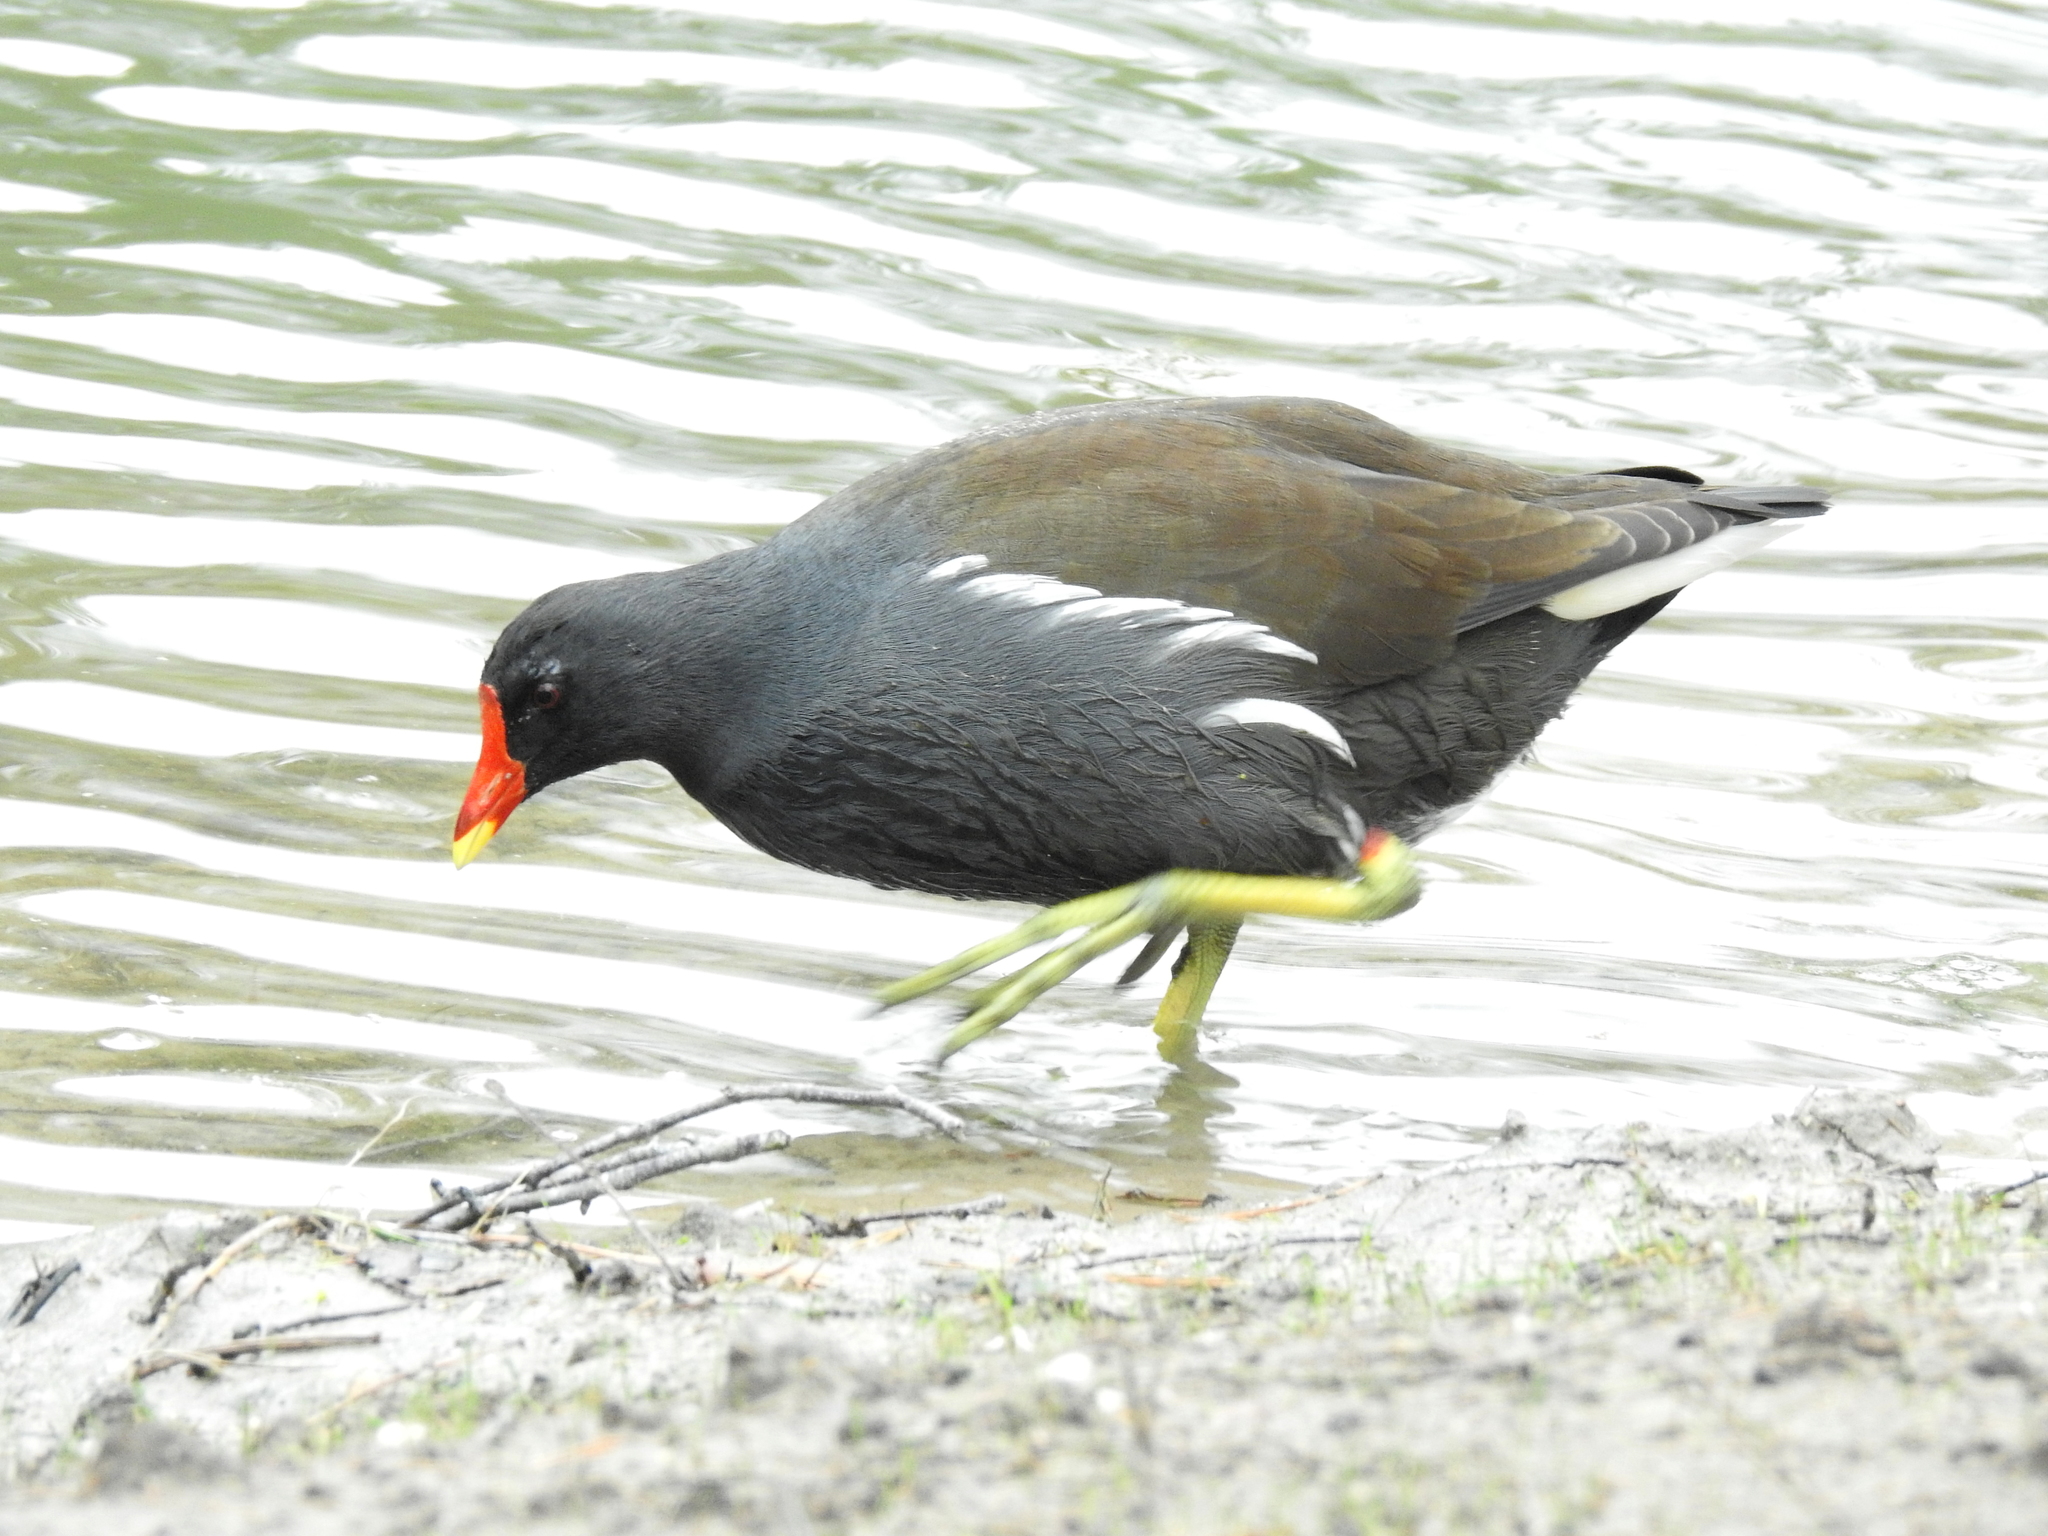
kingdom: Animalia
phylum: Chordata
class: Aves
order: Gruiformes
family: Rallidae
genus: Gallinula
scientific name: Gallinula chloropus
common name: Common moorhen
